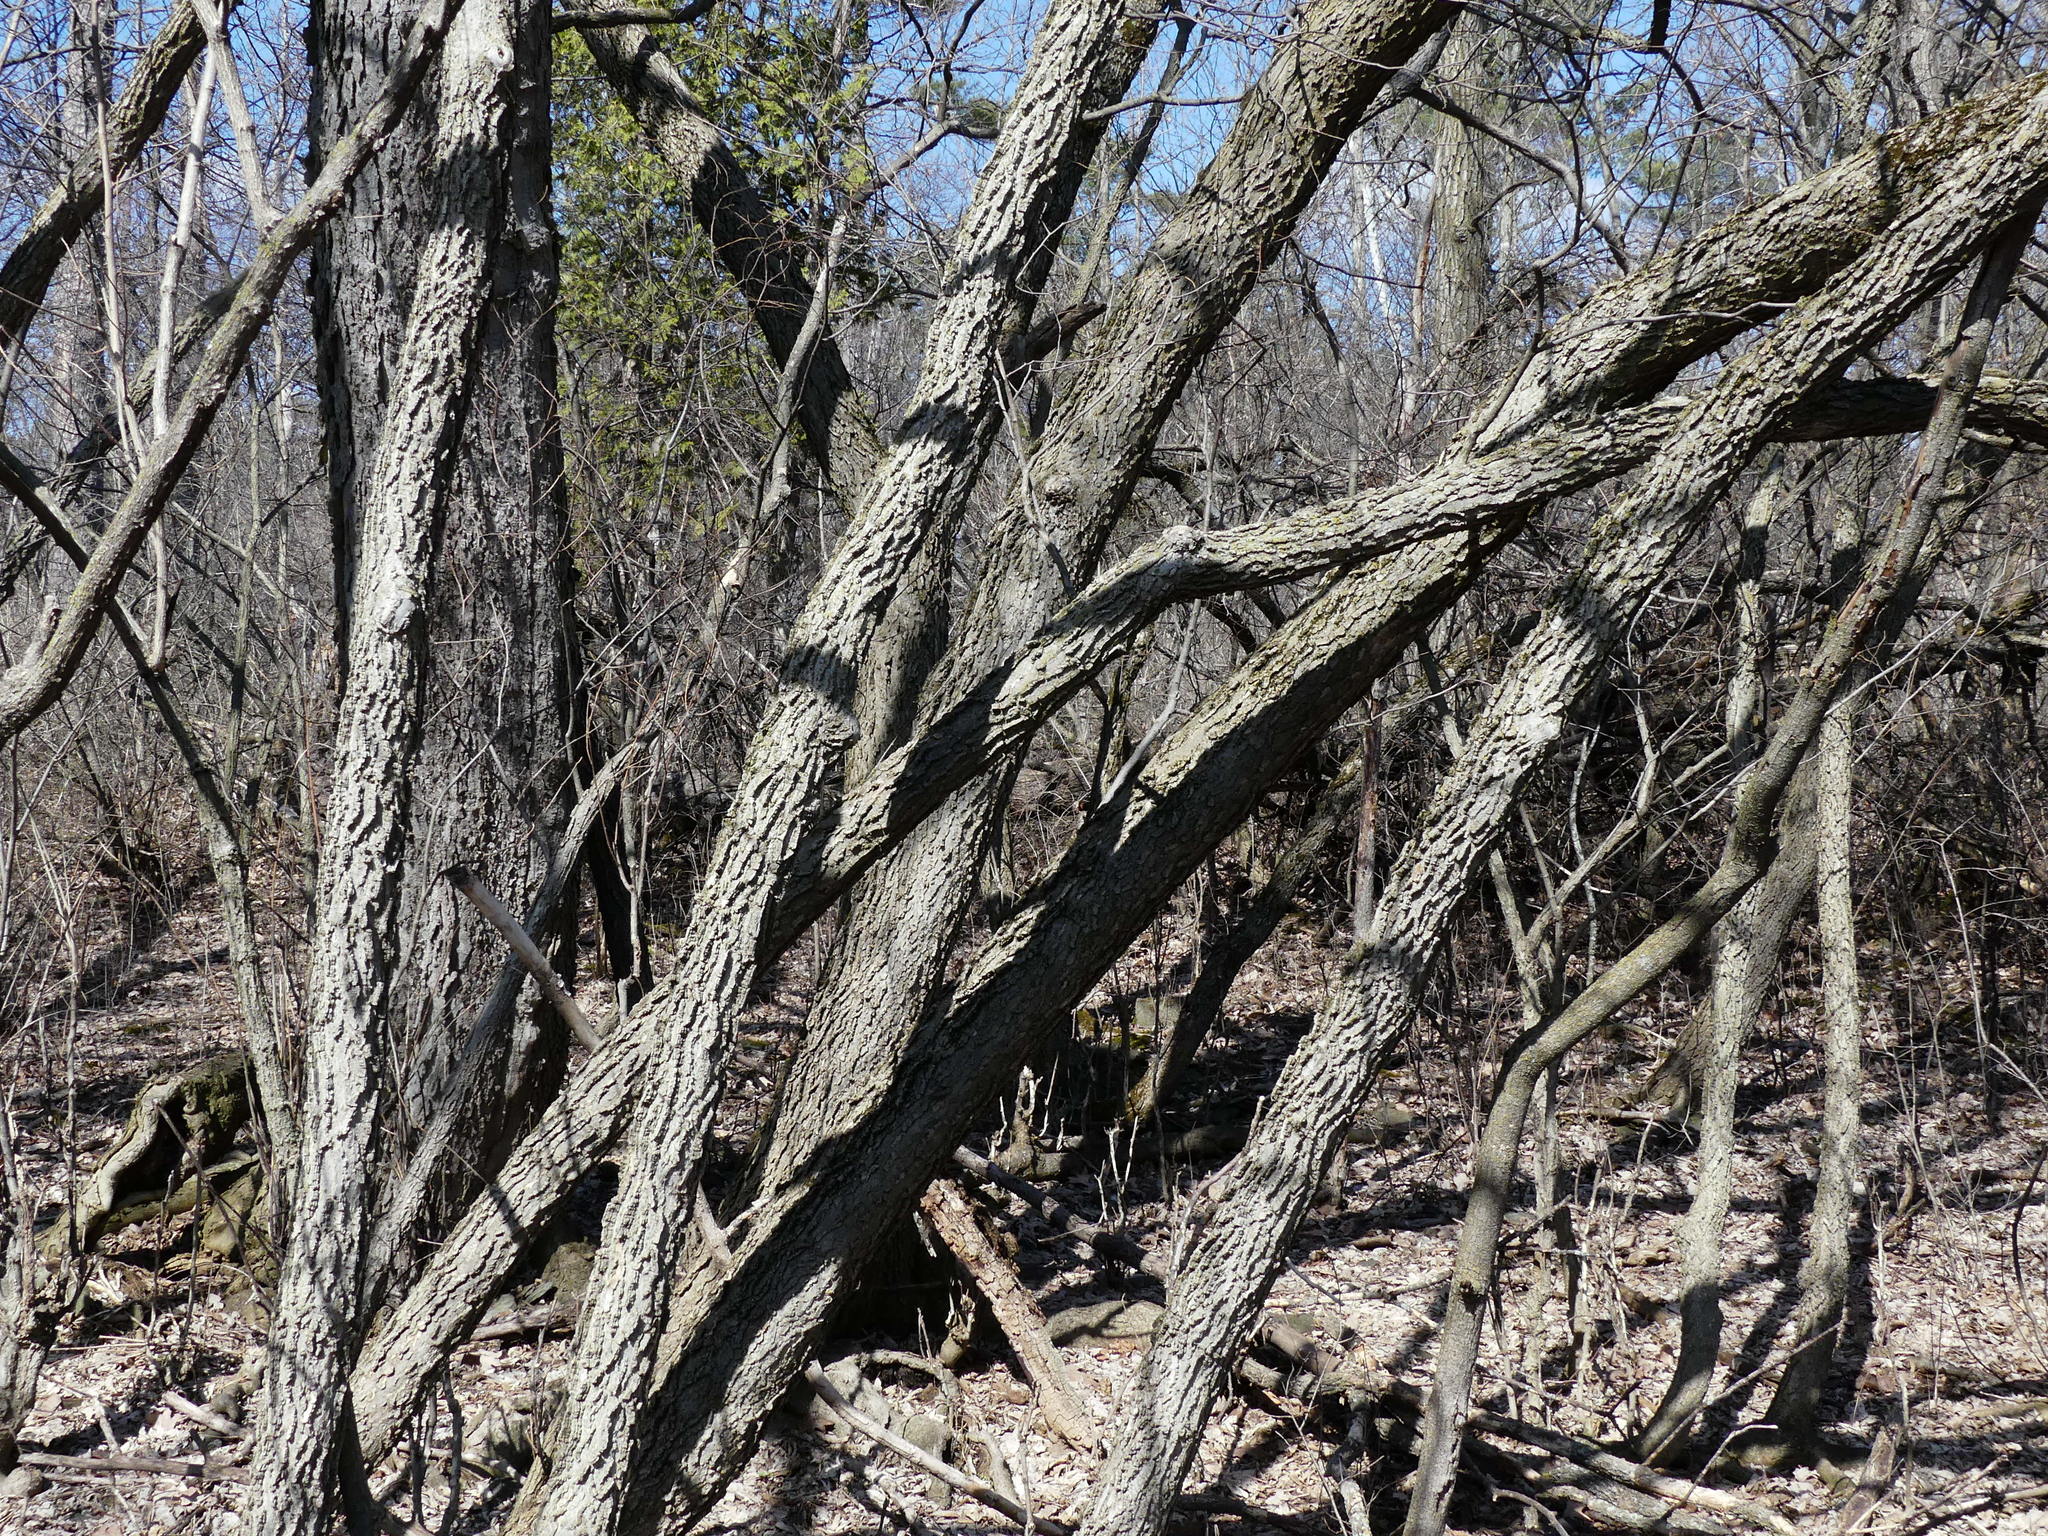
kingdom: Plantae
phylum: Tracheophyta
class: Magnoliopsida
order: Rosales
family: Cannabaceae
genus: Celtis
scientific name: Celtis occidentalis
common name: Common hackberry
